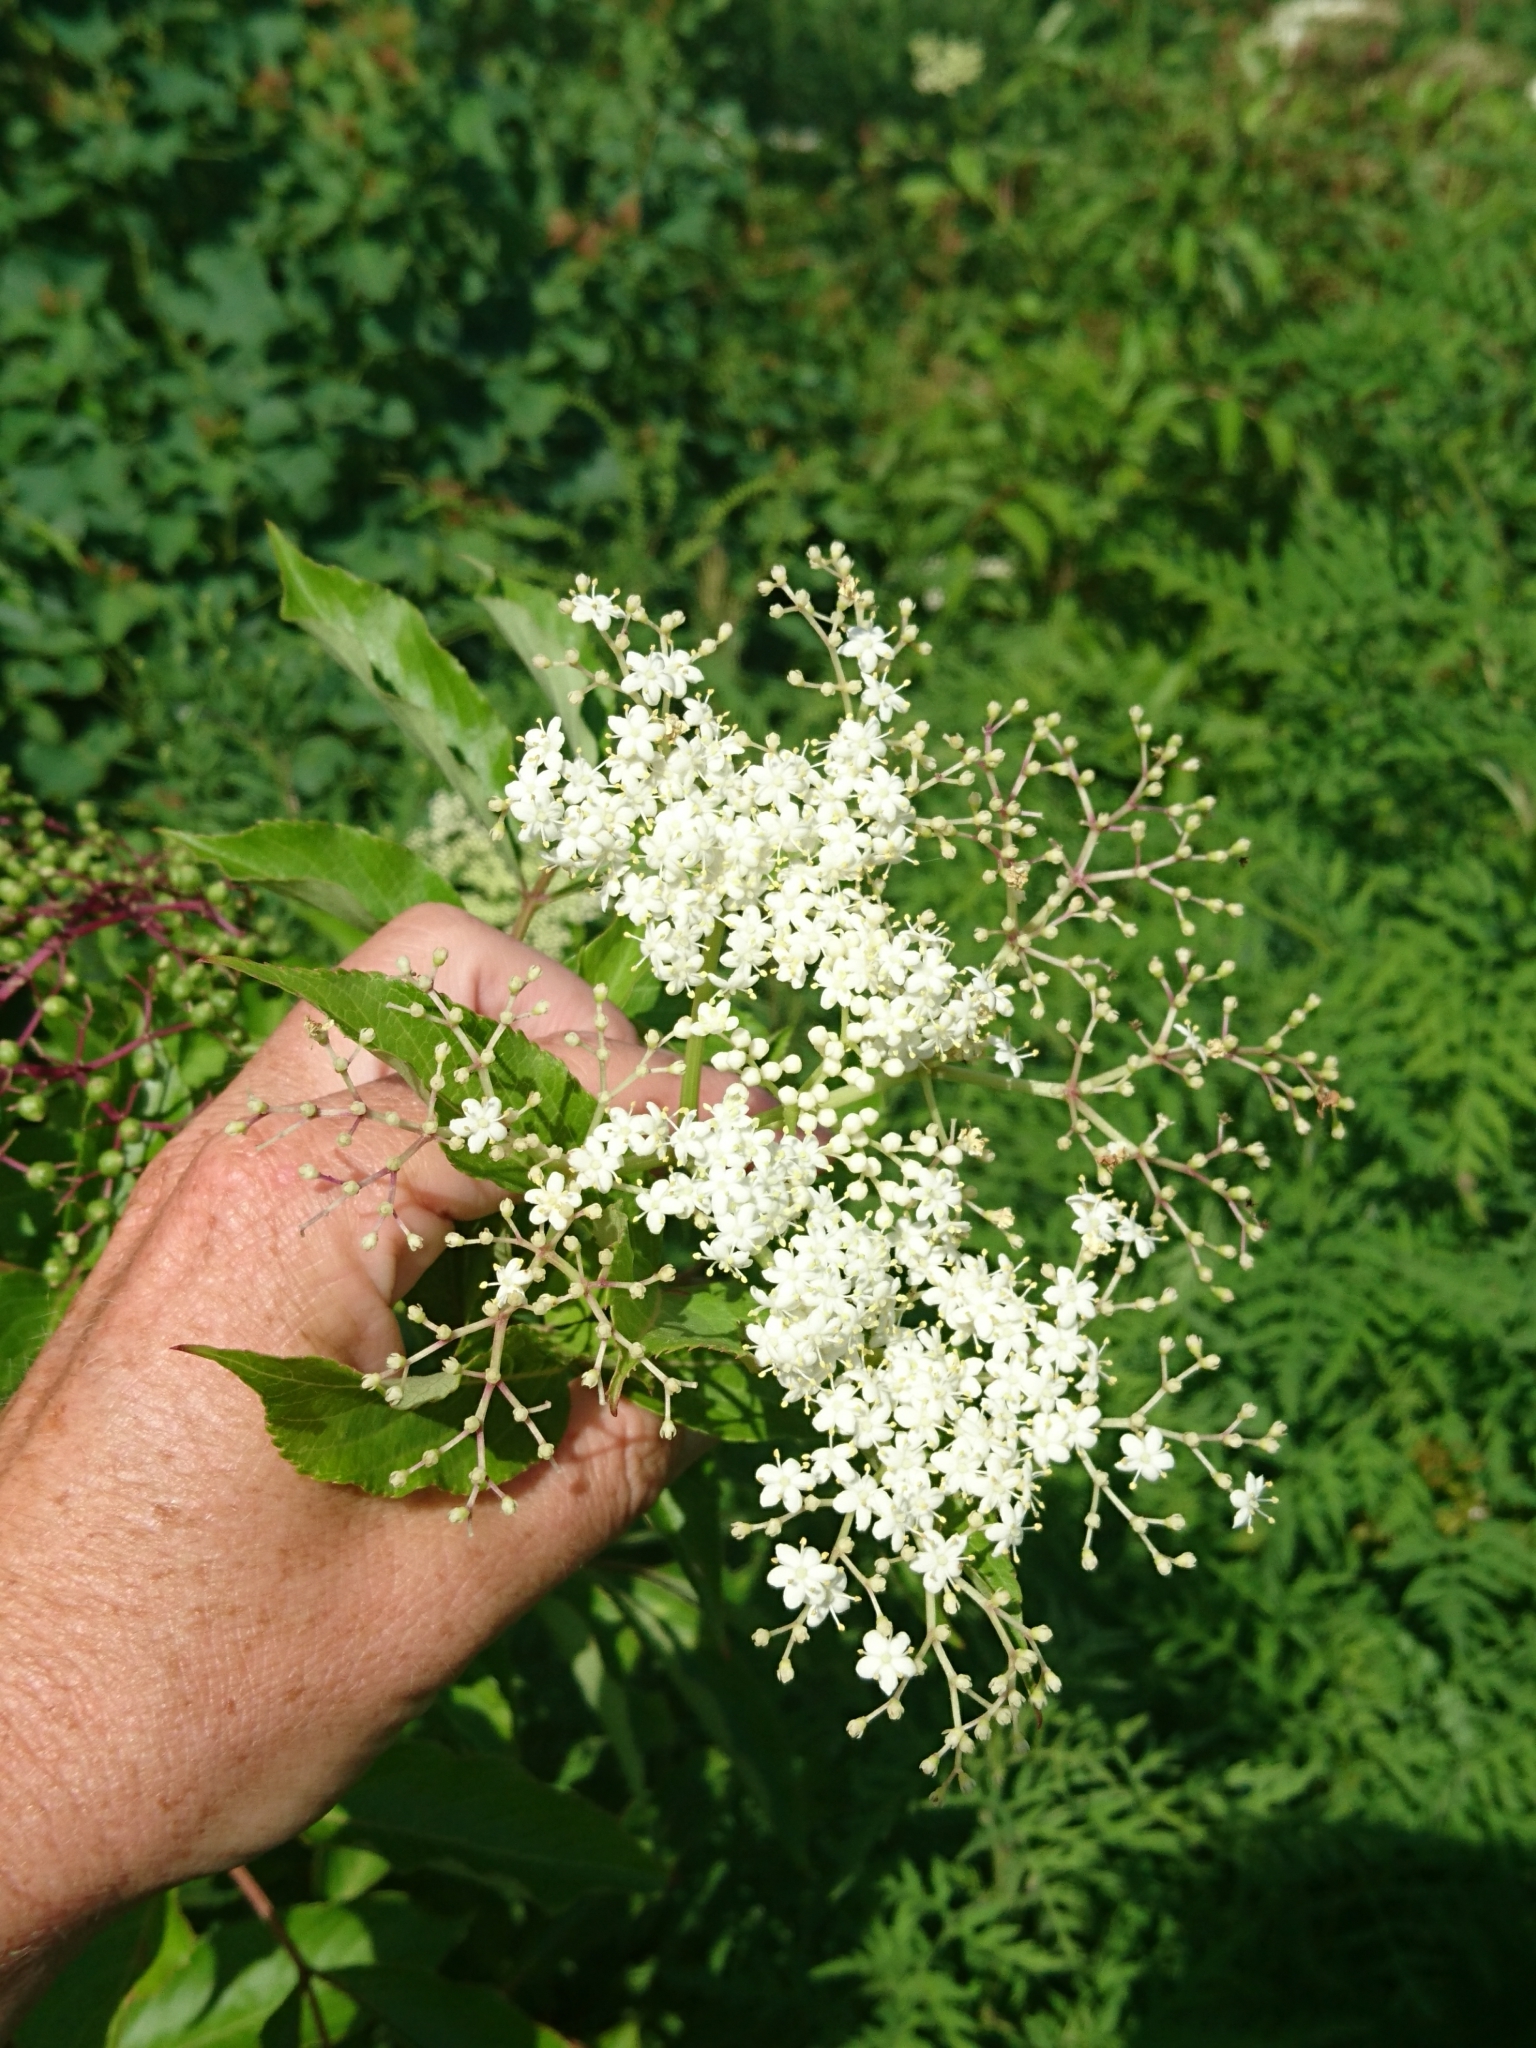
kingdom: Plantae
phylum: Tracheophyta
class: Magnoliopsida
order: Dipsacales
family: Viburnaceae
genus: Sambucus
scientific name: Sambucus canadensis
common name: American elder
